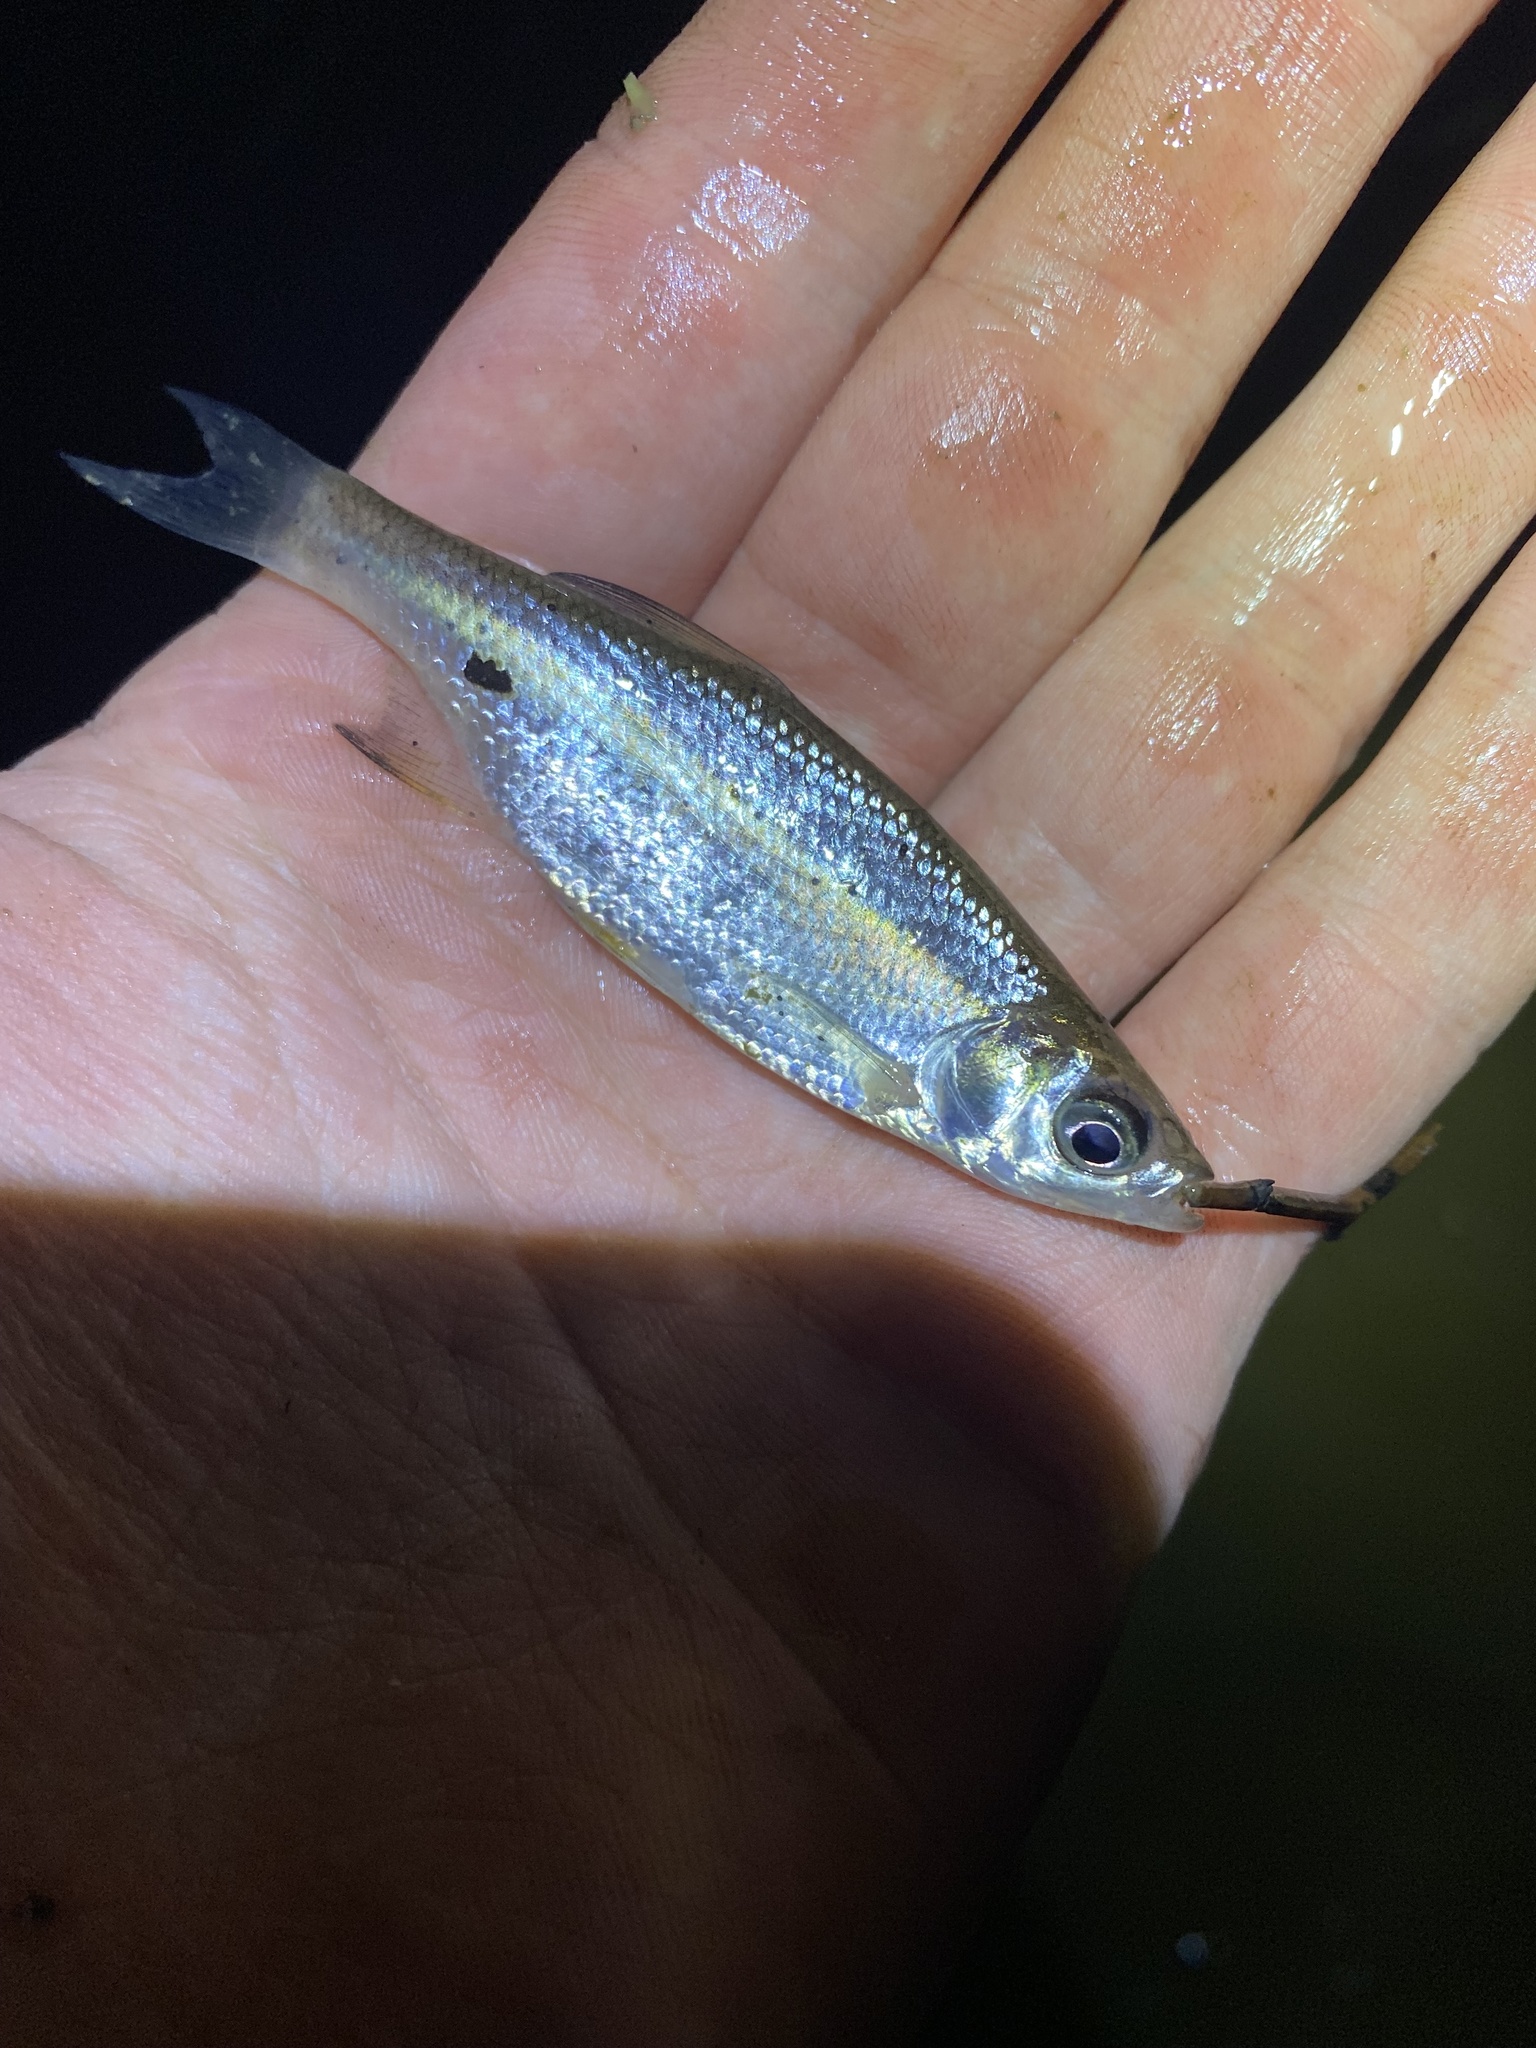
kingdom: Animalia
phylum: Chordata
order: Cypriniformes
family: Cyprinidae
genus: Notemigonus
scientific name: Notemigonus crysoleucas
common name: Golden shiner
